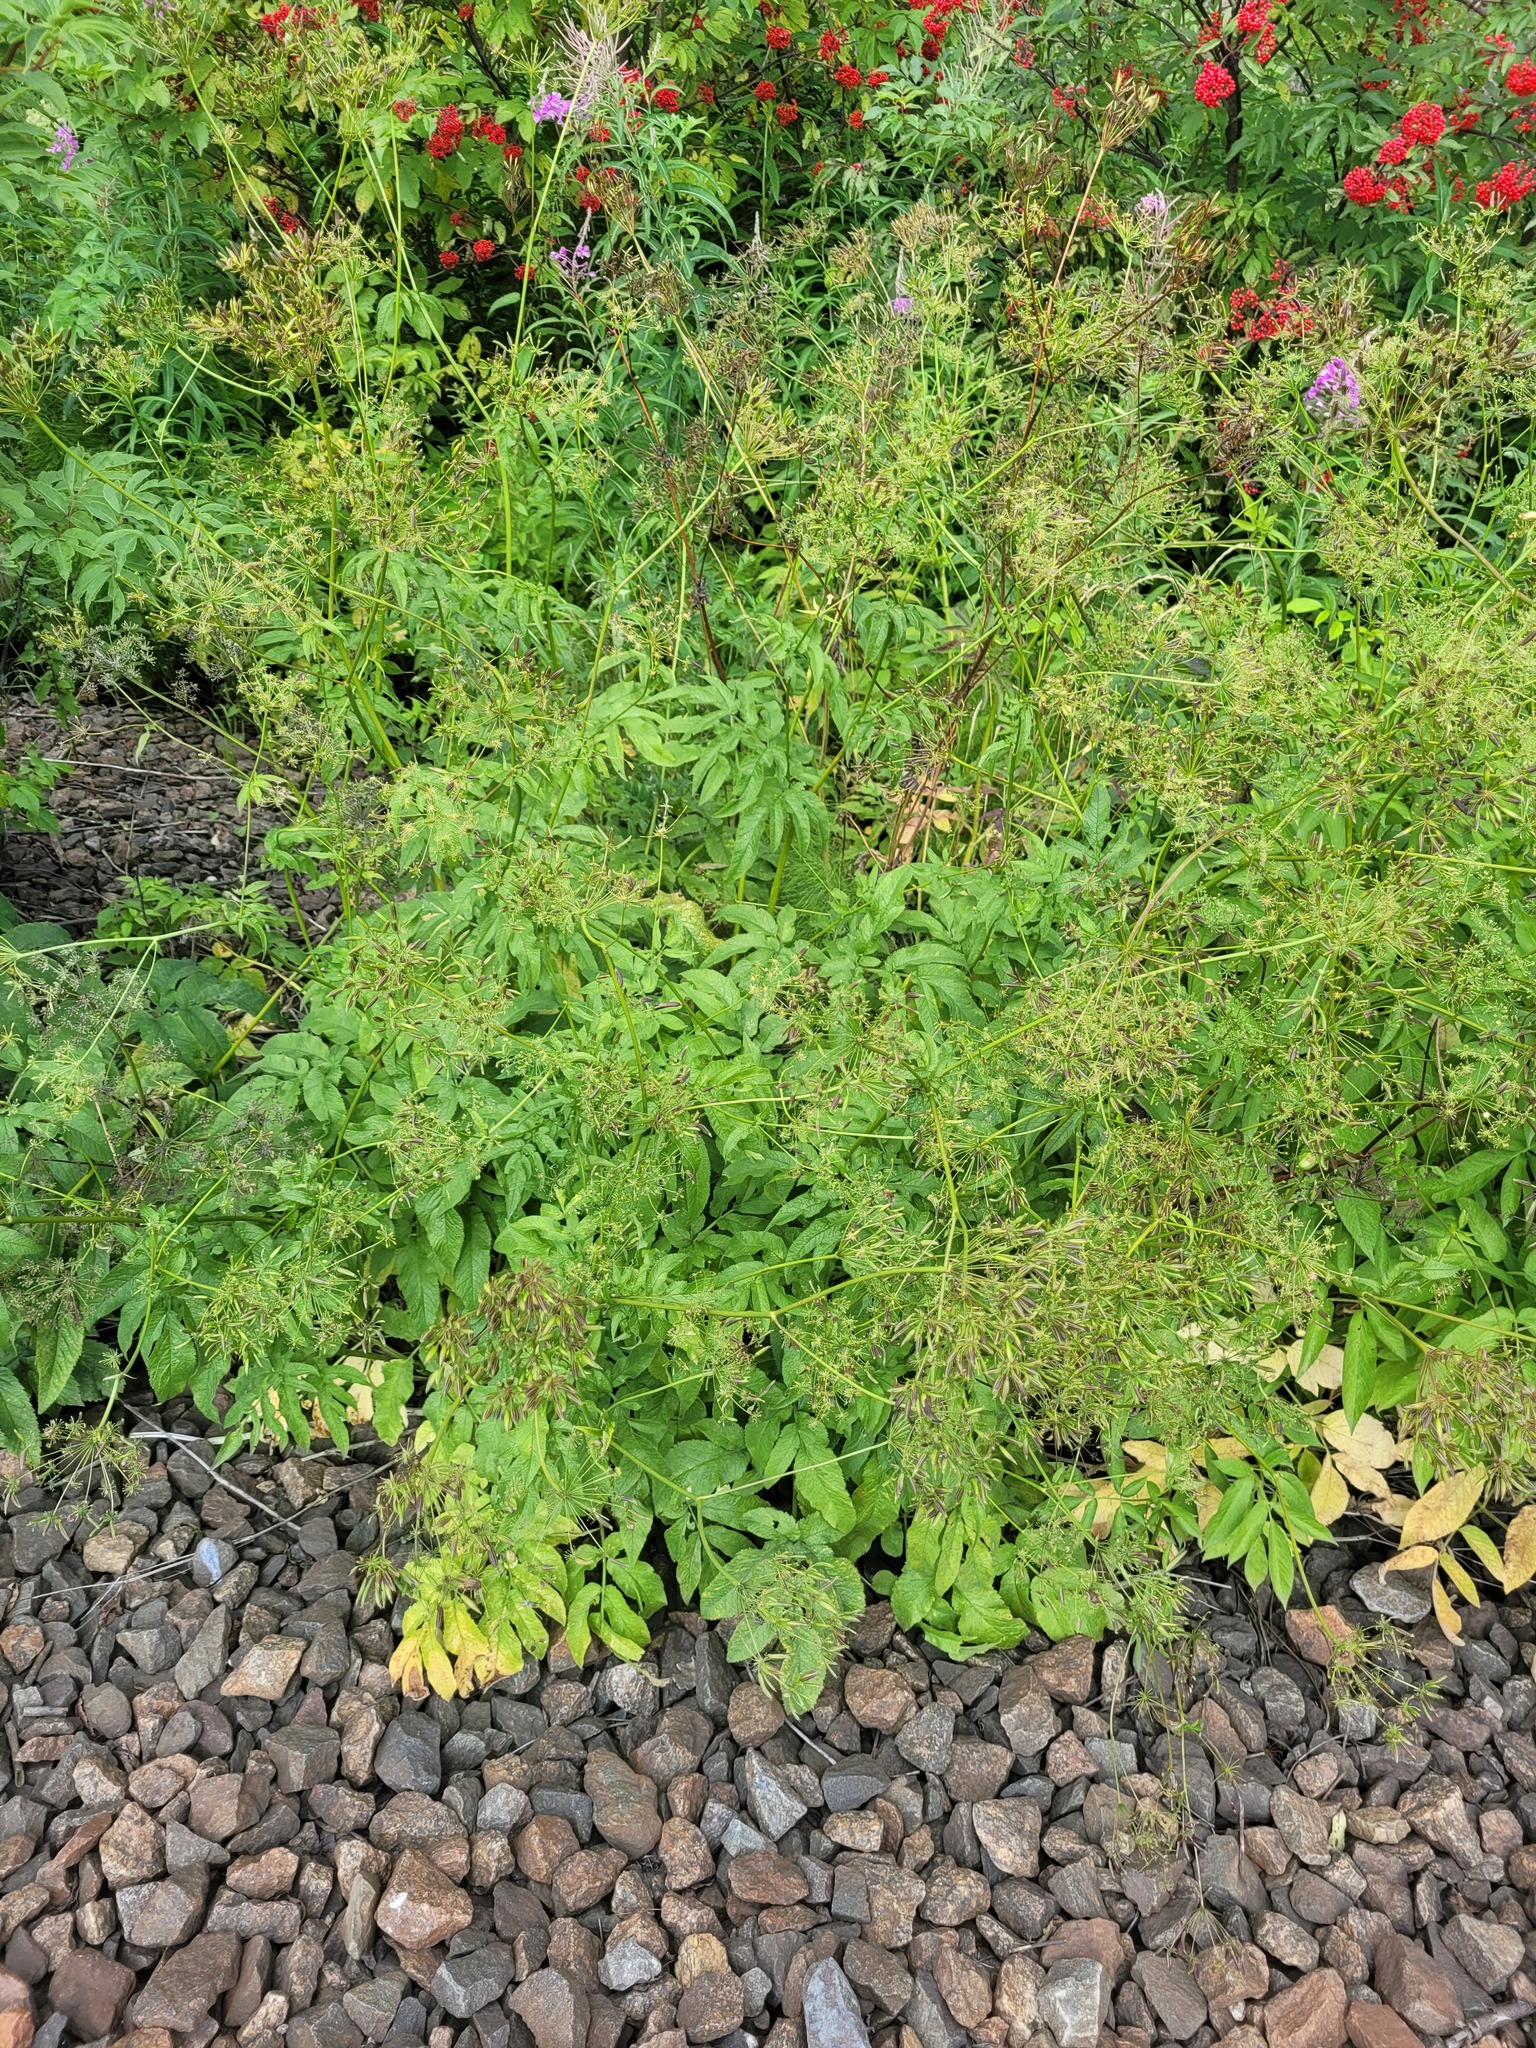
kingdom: Plantae
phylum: Tracheophyta
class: Magnoliopsida
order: Apiales
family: Apiaceae
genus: Chaerophyllum
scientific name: Chaerophyllum aromaticum
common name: Broadleaf chervil
